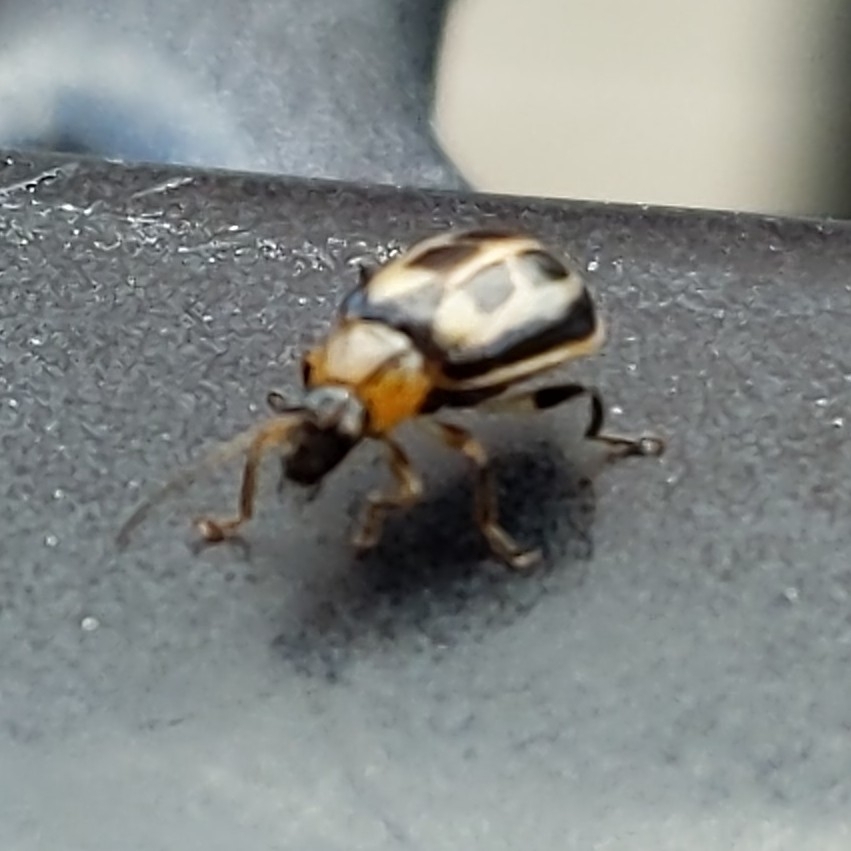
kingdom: Animalia
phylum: Arthropoda
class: Insecta
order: Coleoptera
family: Chrysomelidae
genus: Cerotoma
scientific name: Cerotoma trifurcata
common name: Bean leaf beetle
